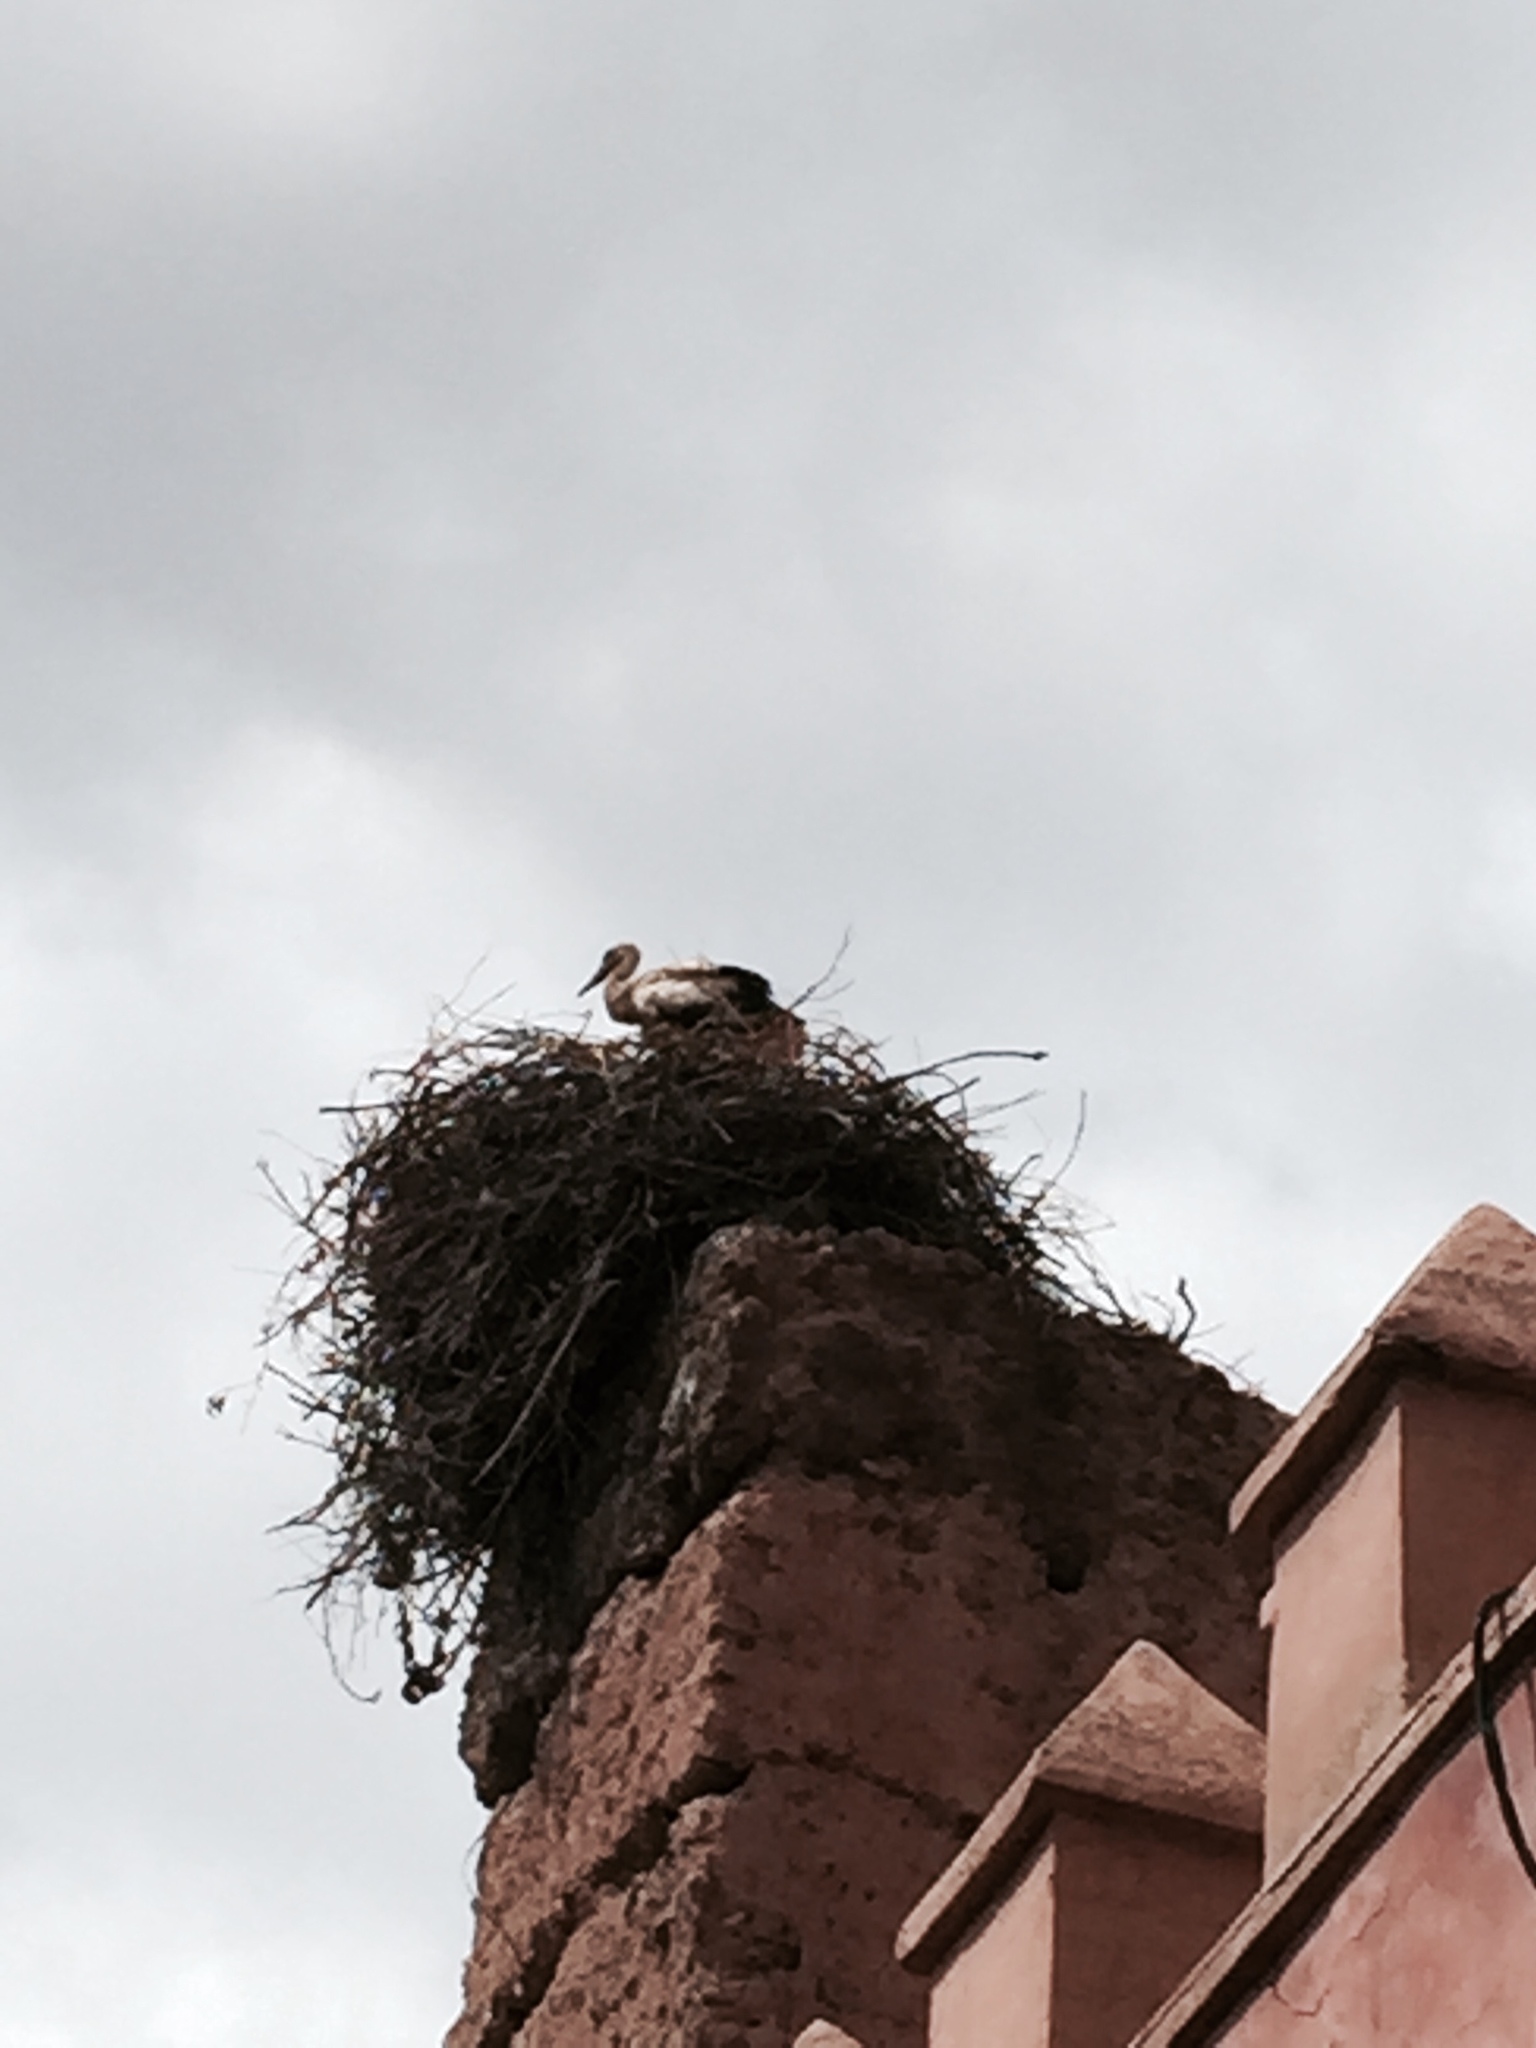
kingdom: Animalia
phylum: Chordata
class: Aves
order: Ciconiiformes
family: Ciconiidae
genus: Ciconia
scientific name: Ciconia ciconia
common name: White stork
